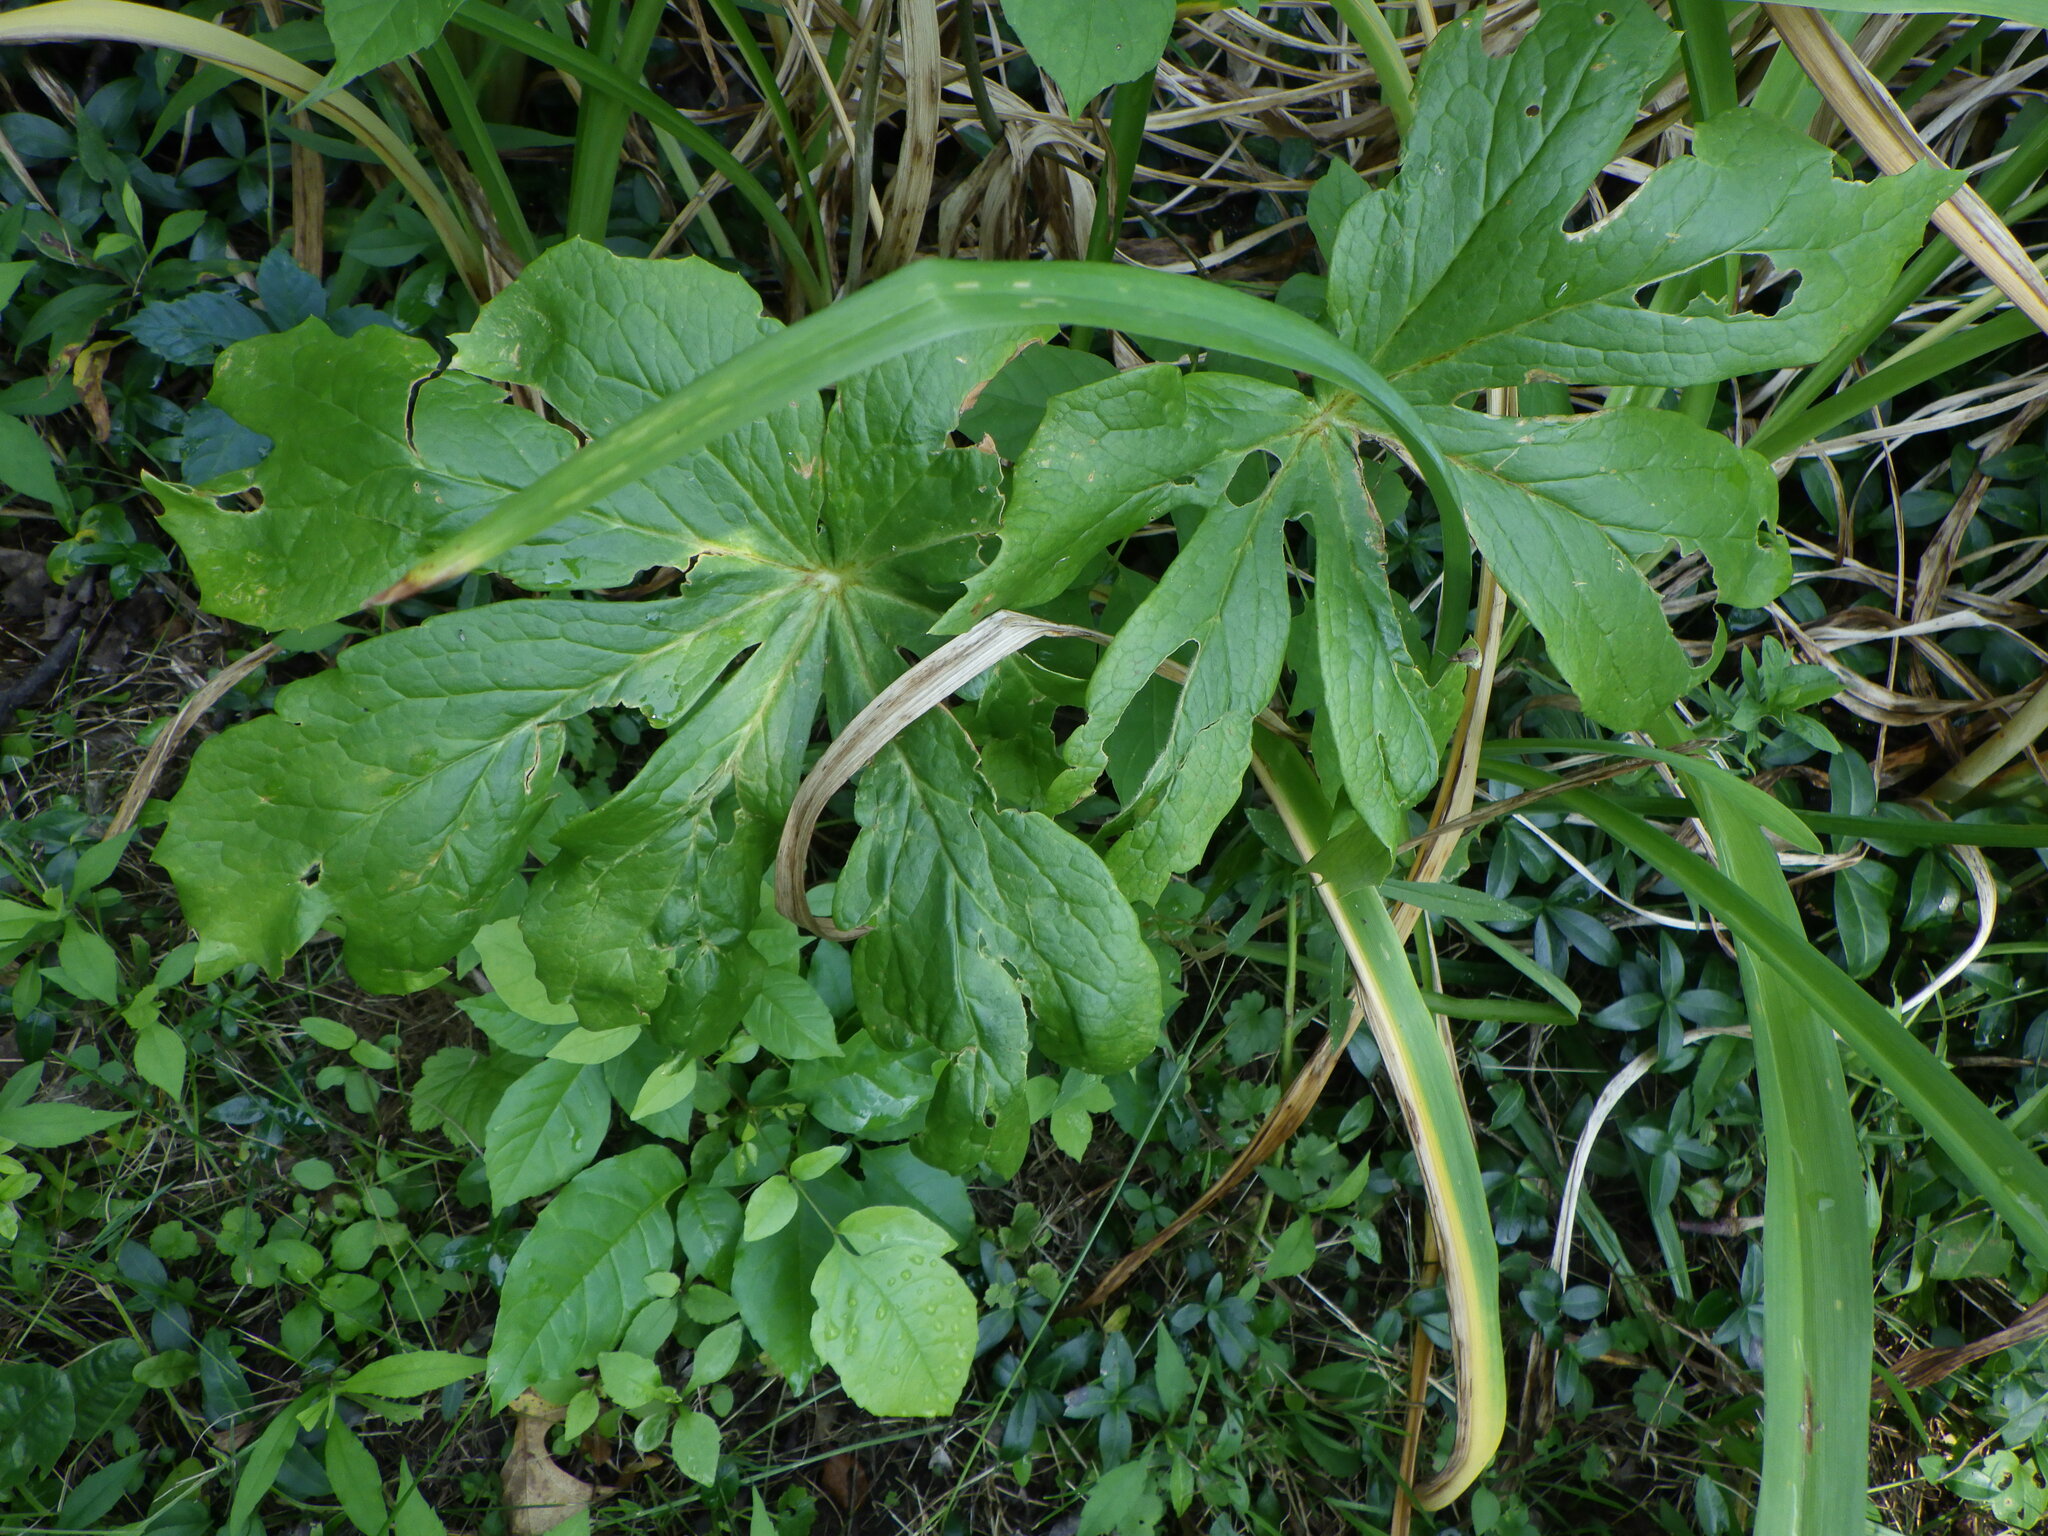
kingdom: Plantae
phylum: Tracheophyta
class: Magnoliopsida
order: Ranunculales
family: Berberidaceae
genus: Podophyllum
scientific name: Podophyllum peltatum
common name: Wild mandrake
